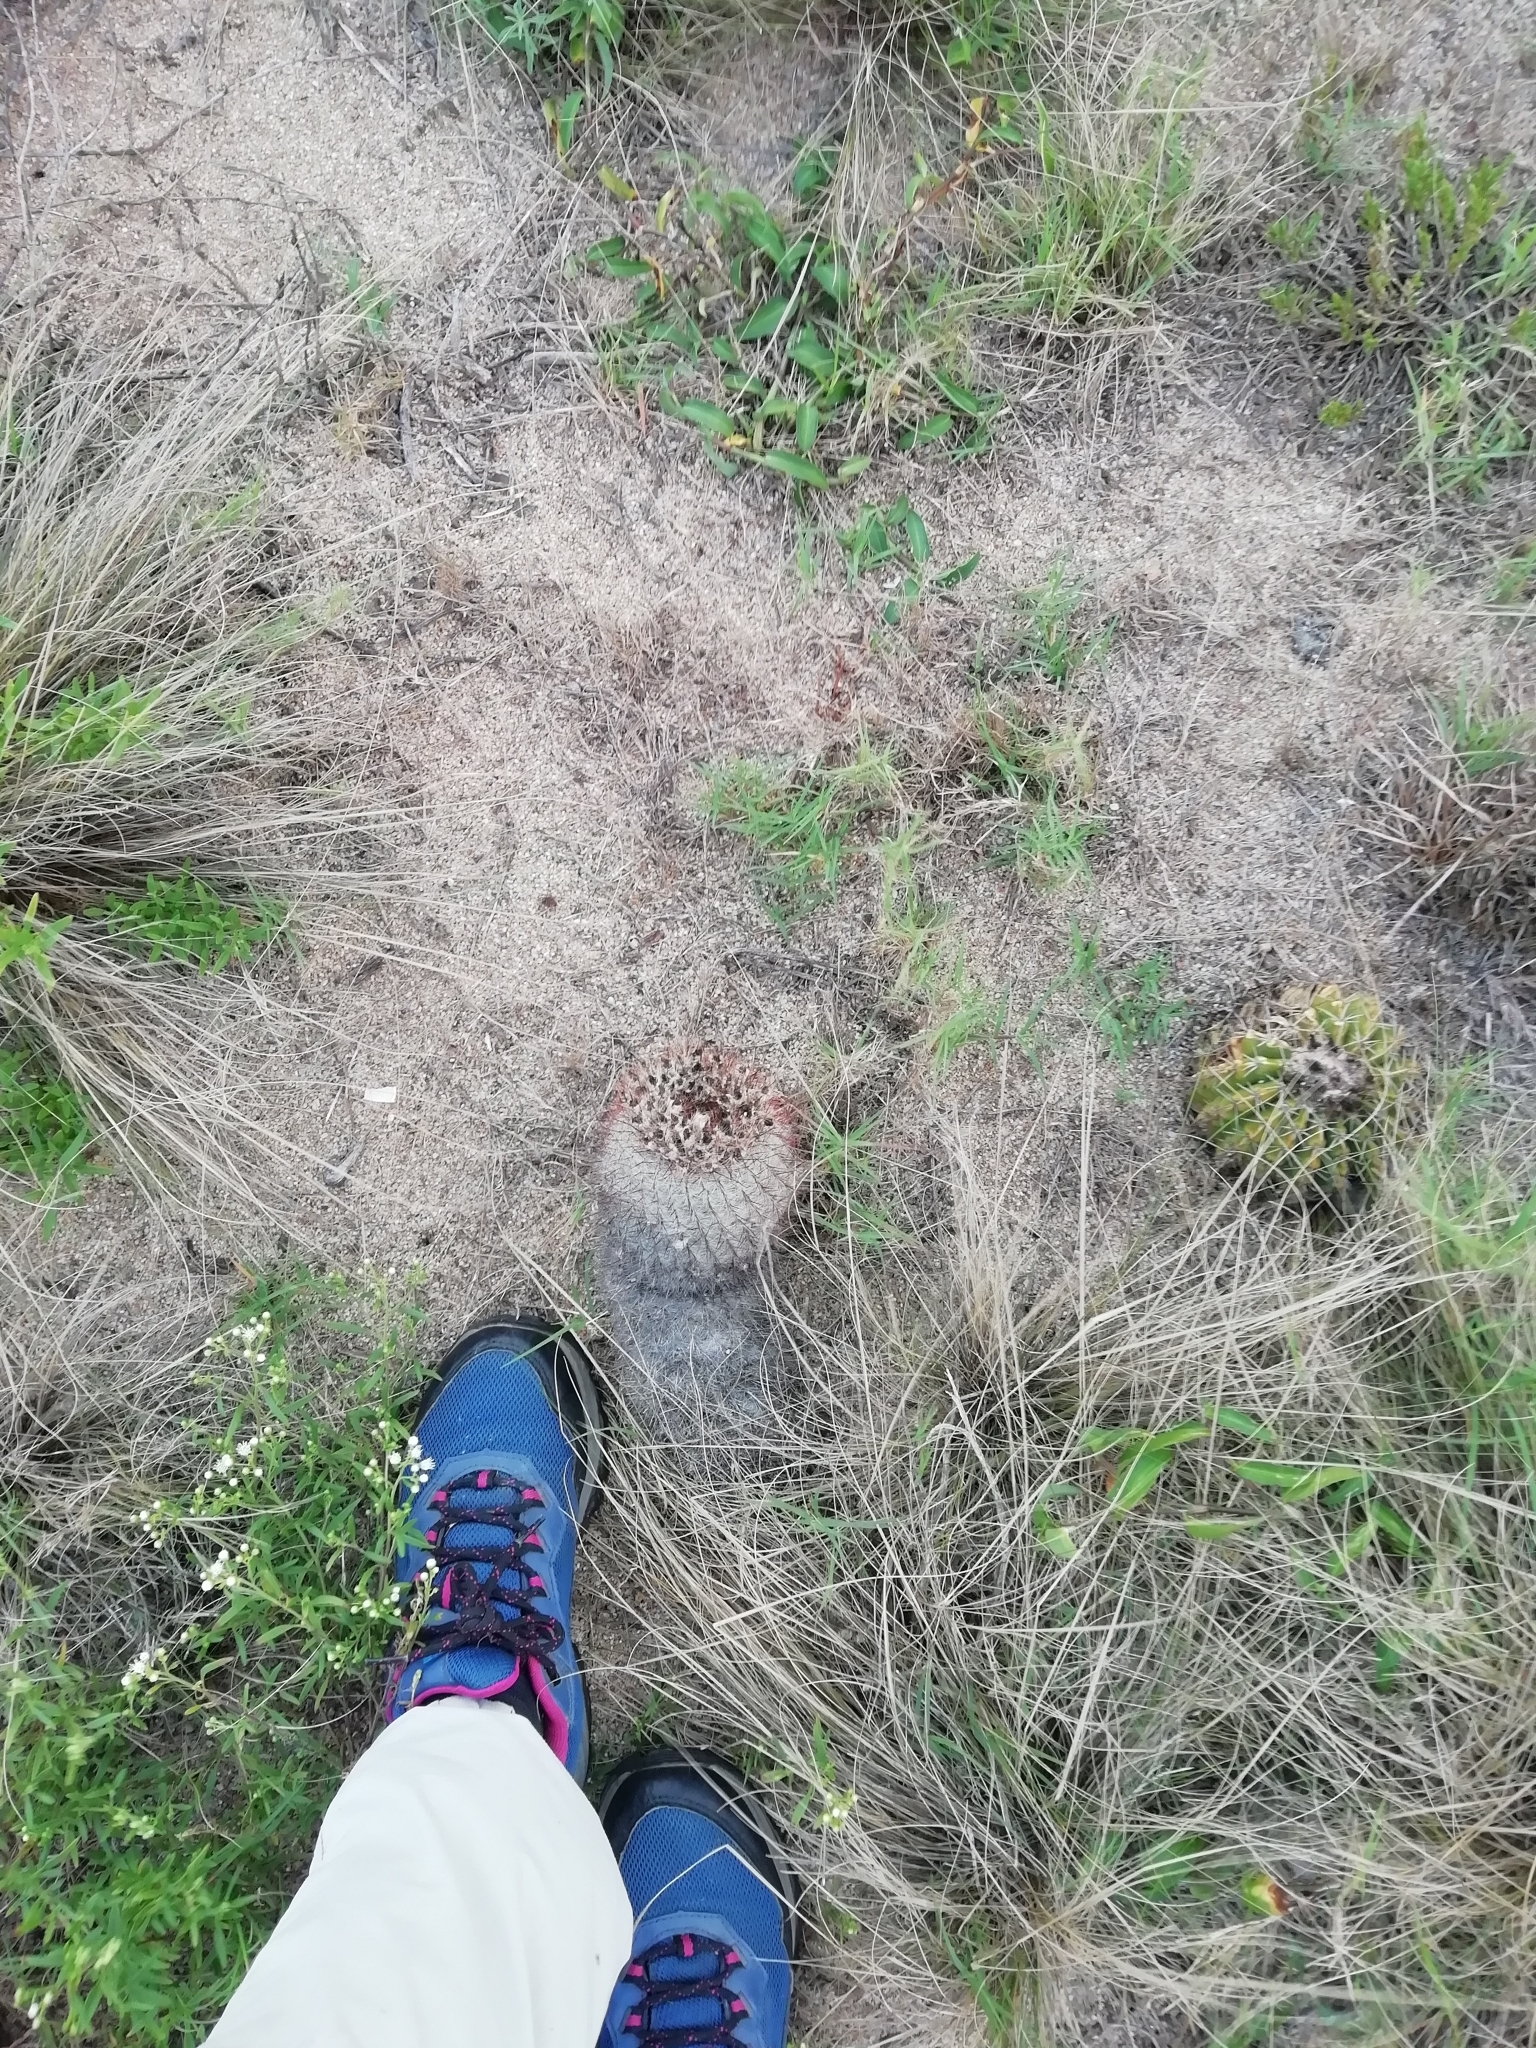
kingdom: Plantae
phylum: Tracheophyta
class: Magnoliopsida
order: Caryophyllales
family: Cactaceae
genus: Parodia
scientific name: Parodia scopa
